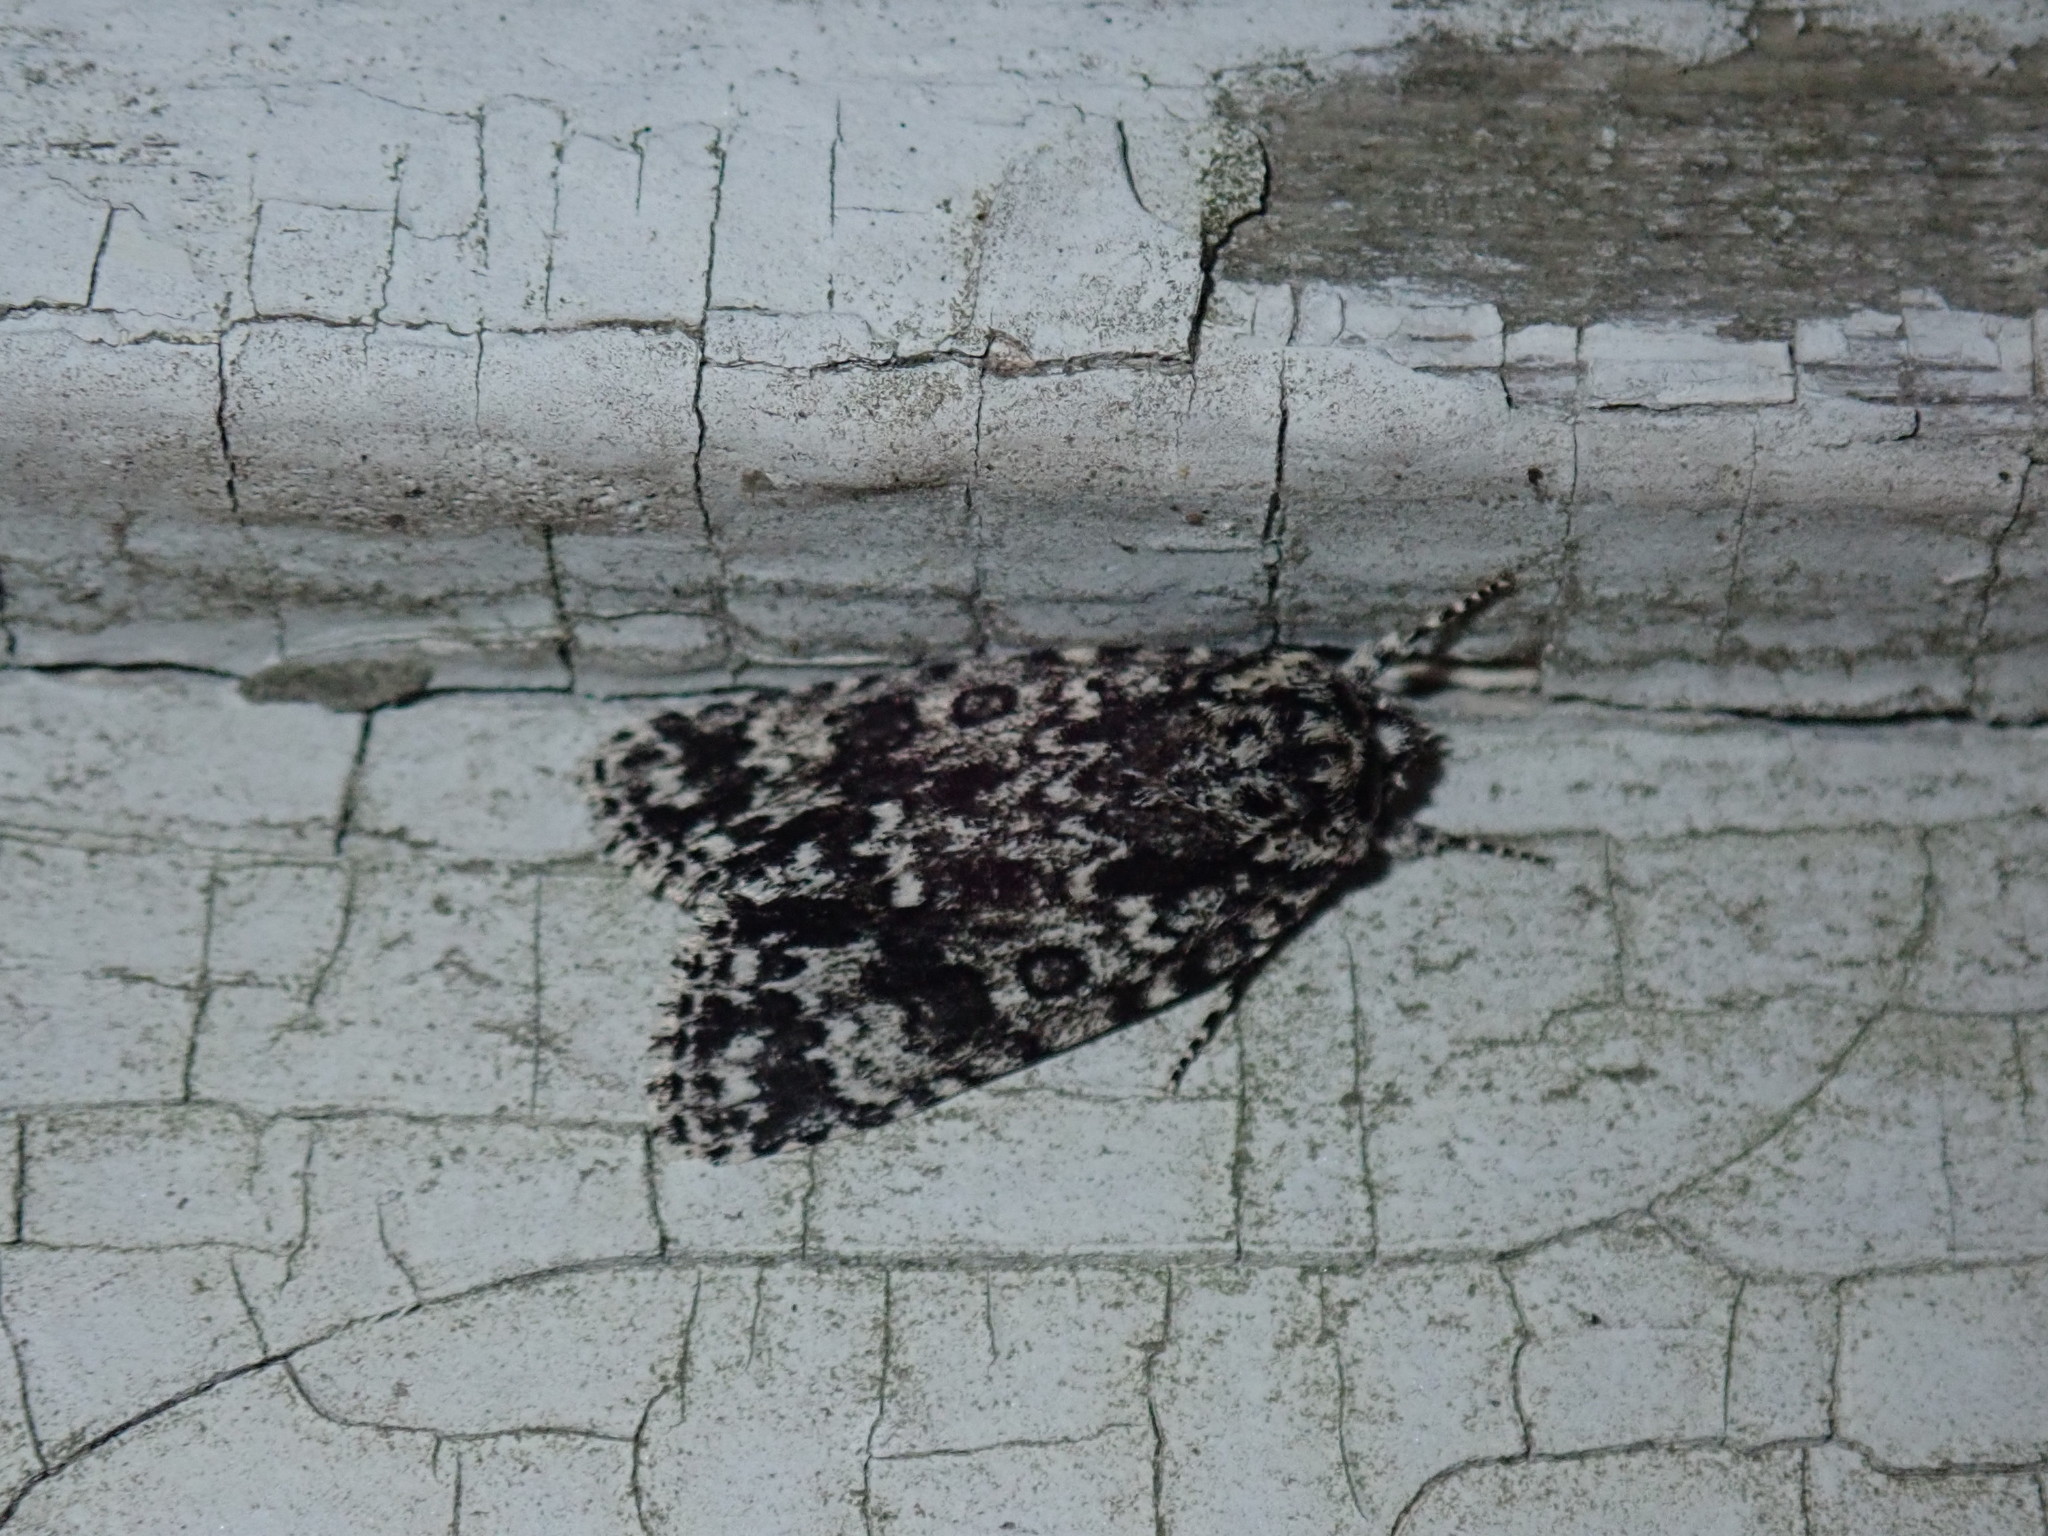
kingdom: Animalia
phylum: Arthropoda
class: Insecta
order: Lepidoptera
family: Noctuidae
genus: Acronicta
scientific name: Acronicta noctivaga
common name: Night-wandering dagger
